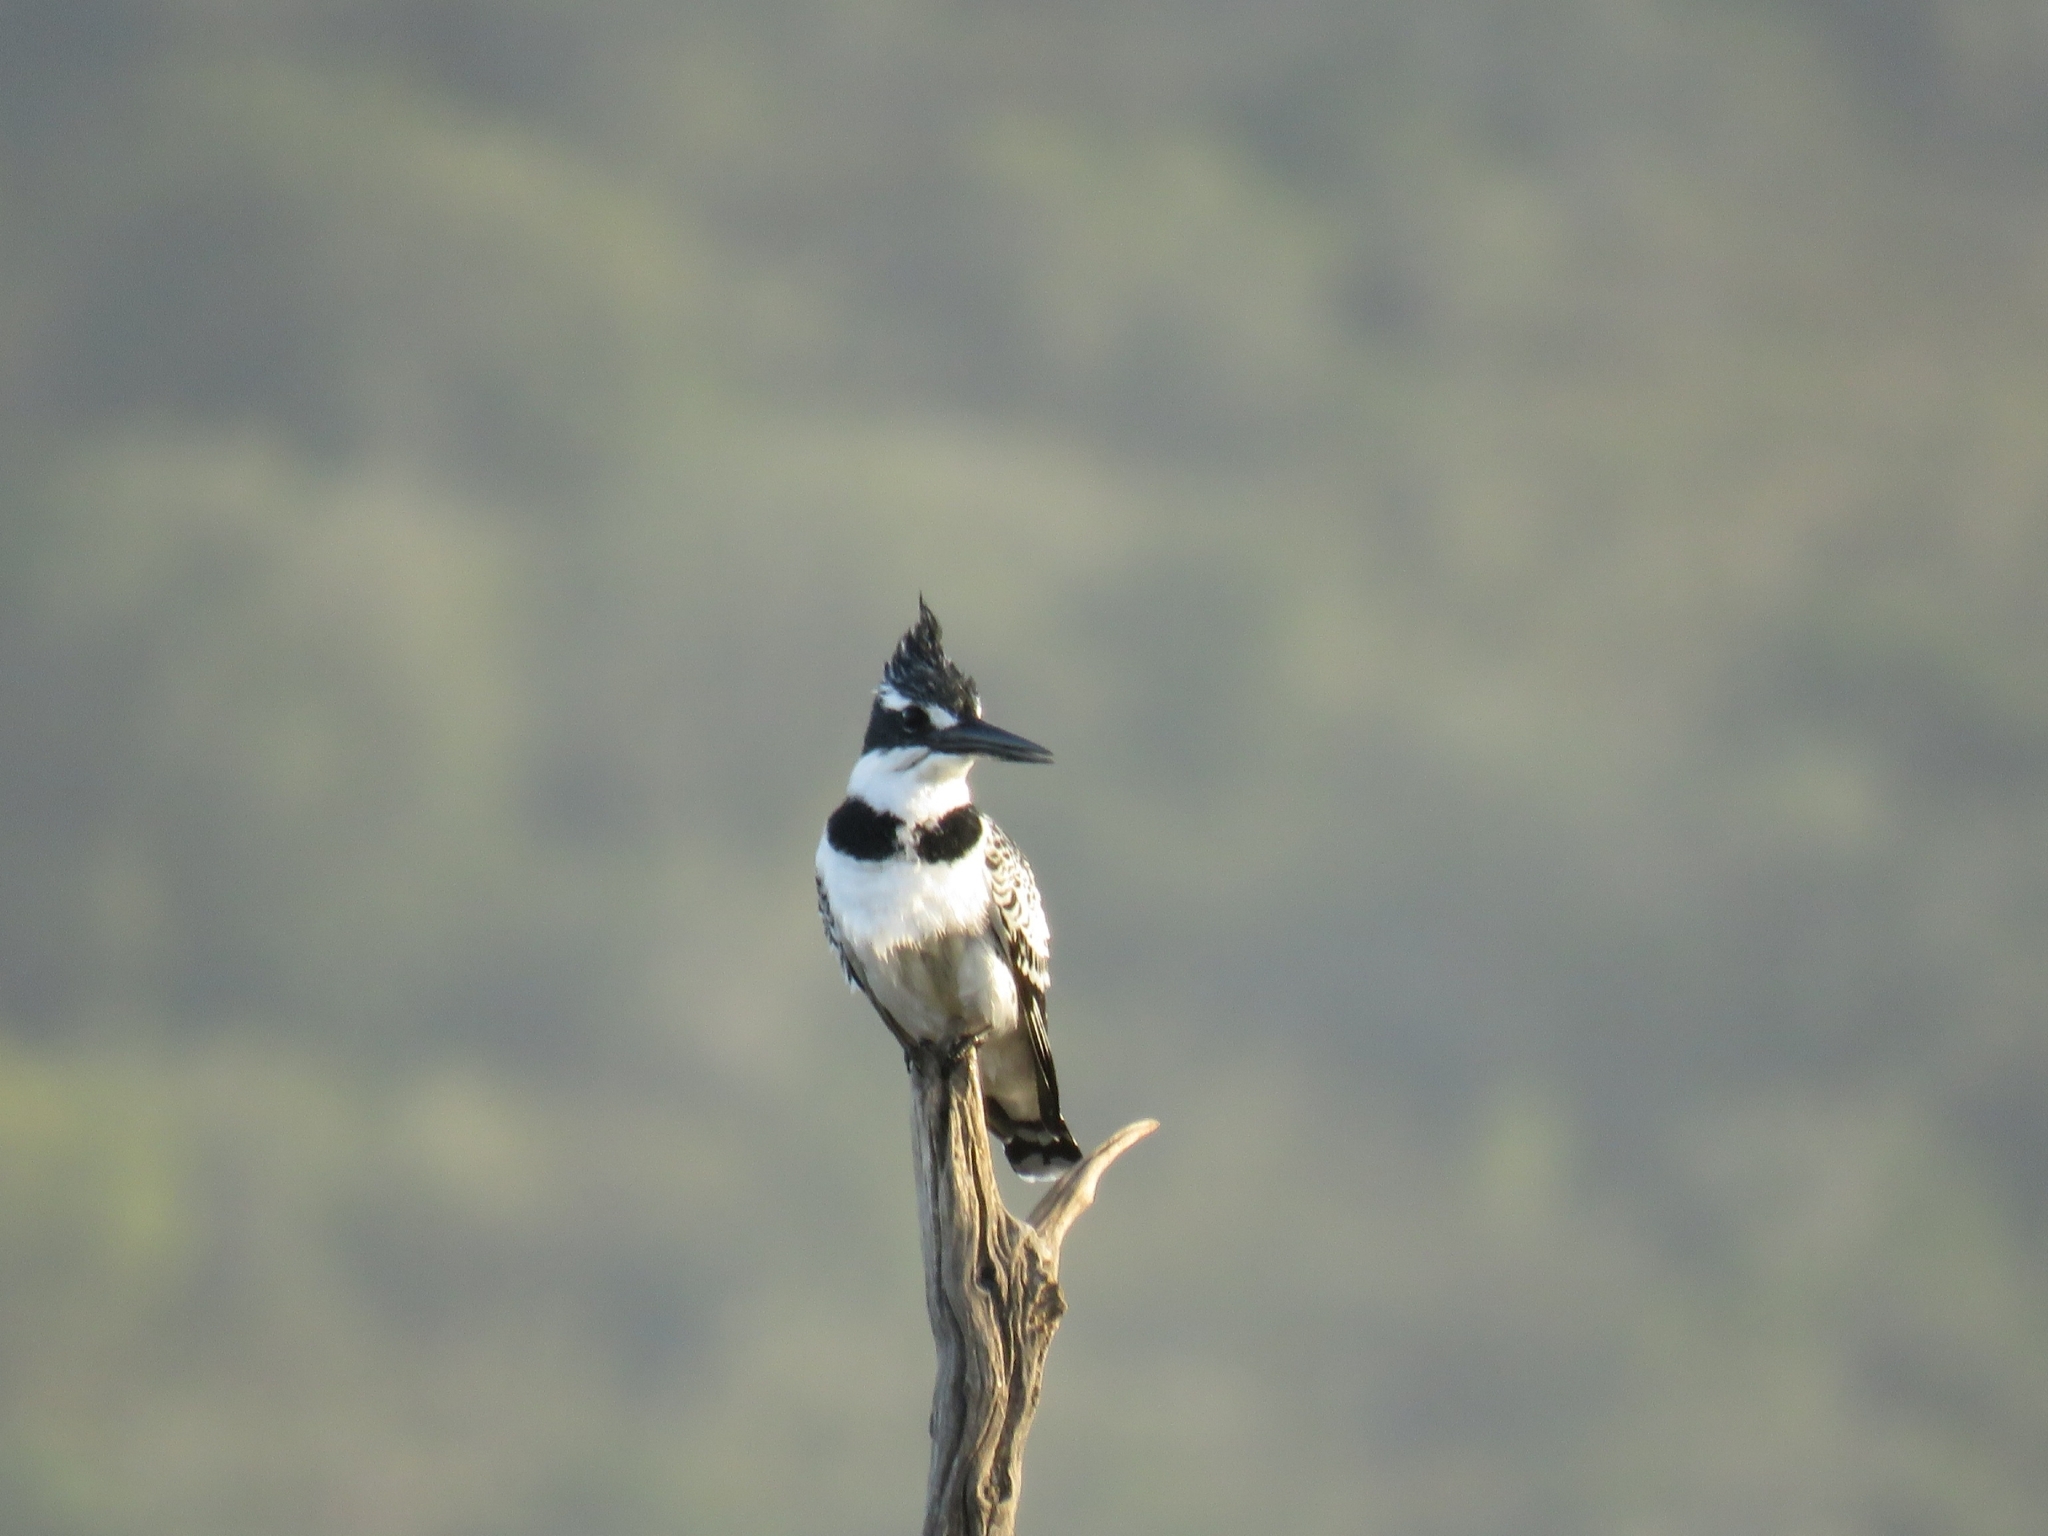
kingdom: Animalia
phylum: Chordata
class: Aves
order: Coraciiformes
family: Alcedinidae
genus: Ceryle
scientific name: Ceryle rudis
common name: Pied kingfisher
